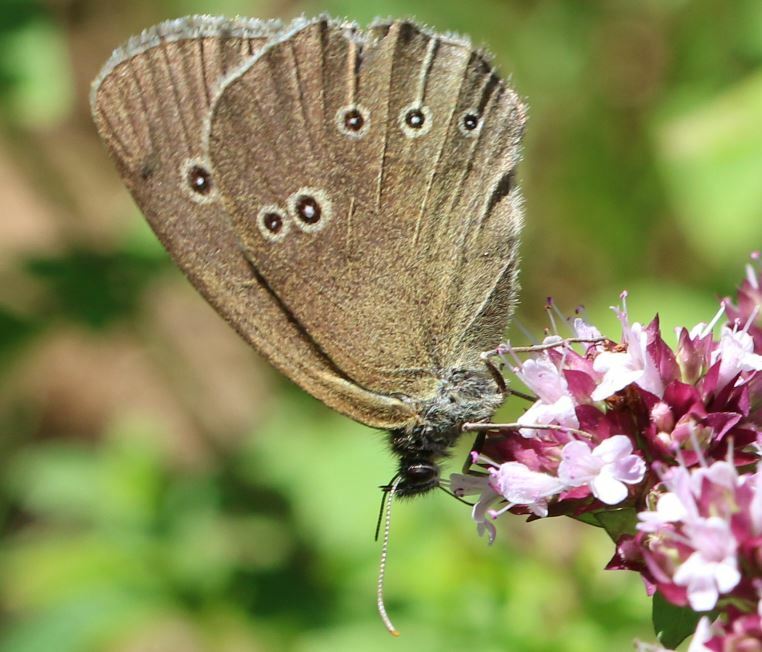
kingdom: Animalia
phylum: Arthropoda
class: Insecta
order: Lepidoptera
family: Nymphalidae
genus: Aphantopus
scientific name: Aphantopus hyperantus
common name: Ringlet
